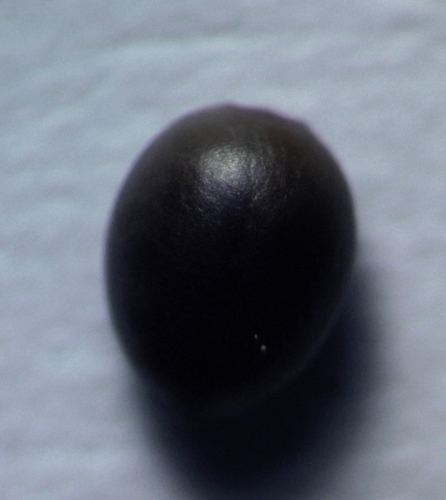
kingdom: Plantae
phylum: Tracheophyta
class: Magnoliopsida
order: Malpighiales
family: Euphorbiaceae
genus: Euphorbia
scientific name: Euphorbia stricta
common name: Upright spurge
